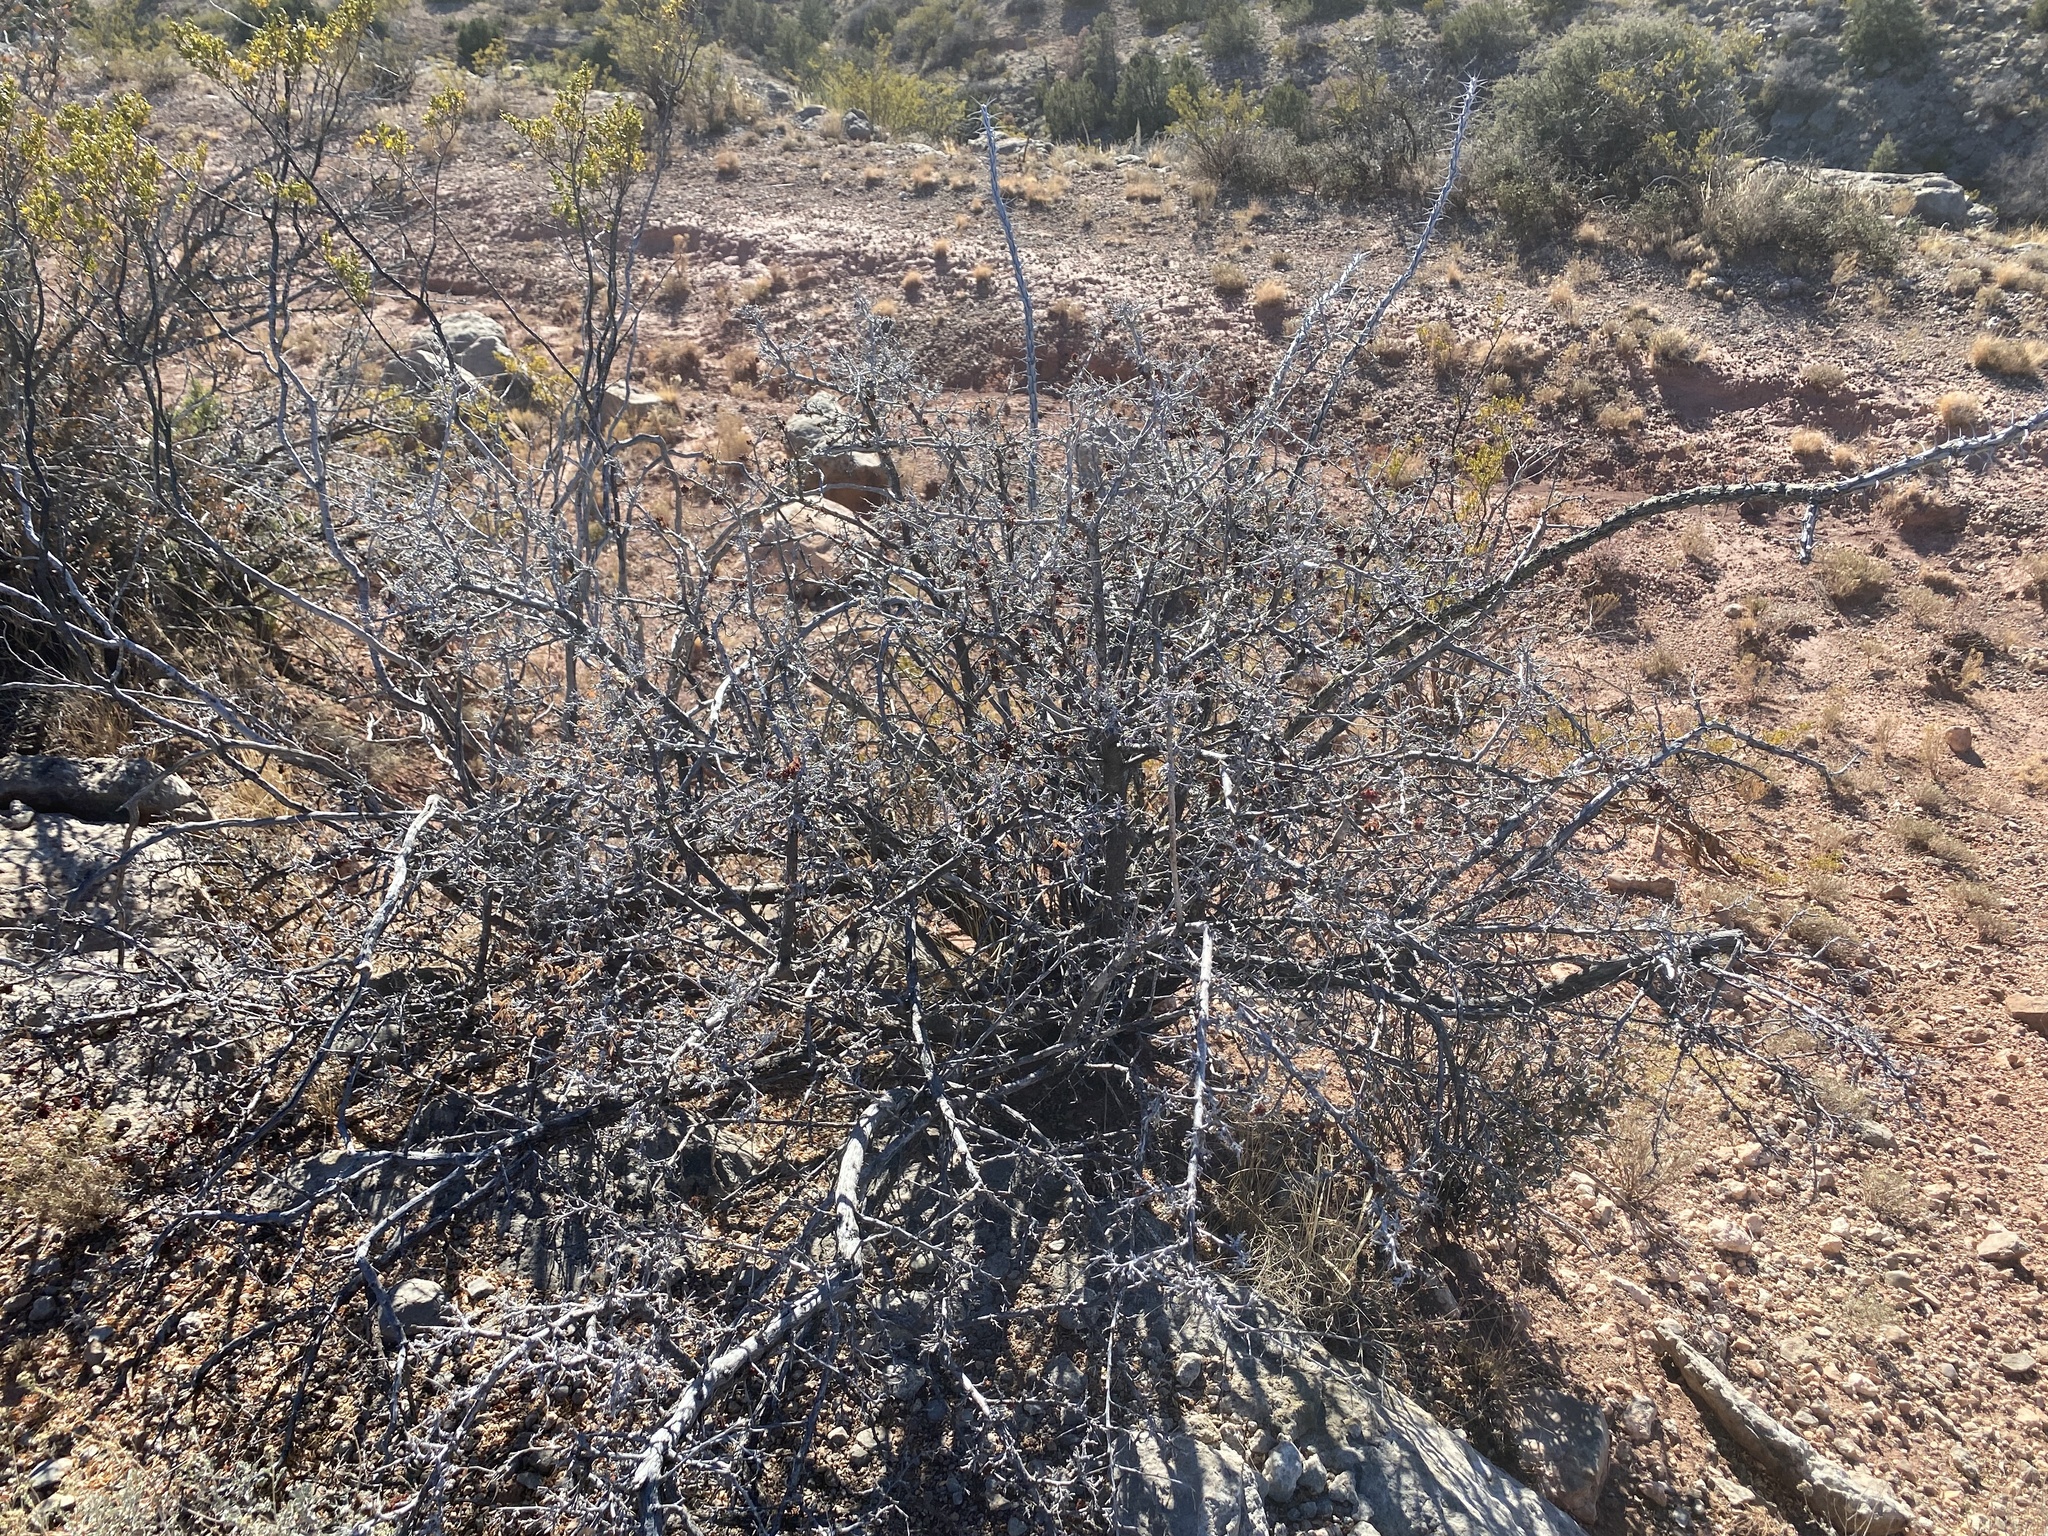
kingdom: Plantae
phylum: Tracheophyta
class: Magnoliopsida
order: Sapindales
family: Anacardiaceae
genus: Rhus
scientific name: Rhus microphylla
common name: Desert sumac
